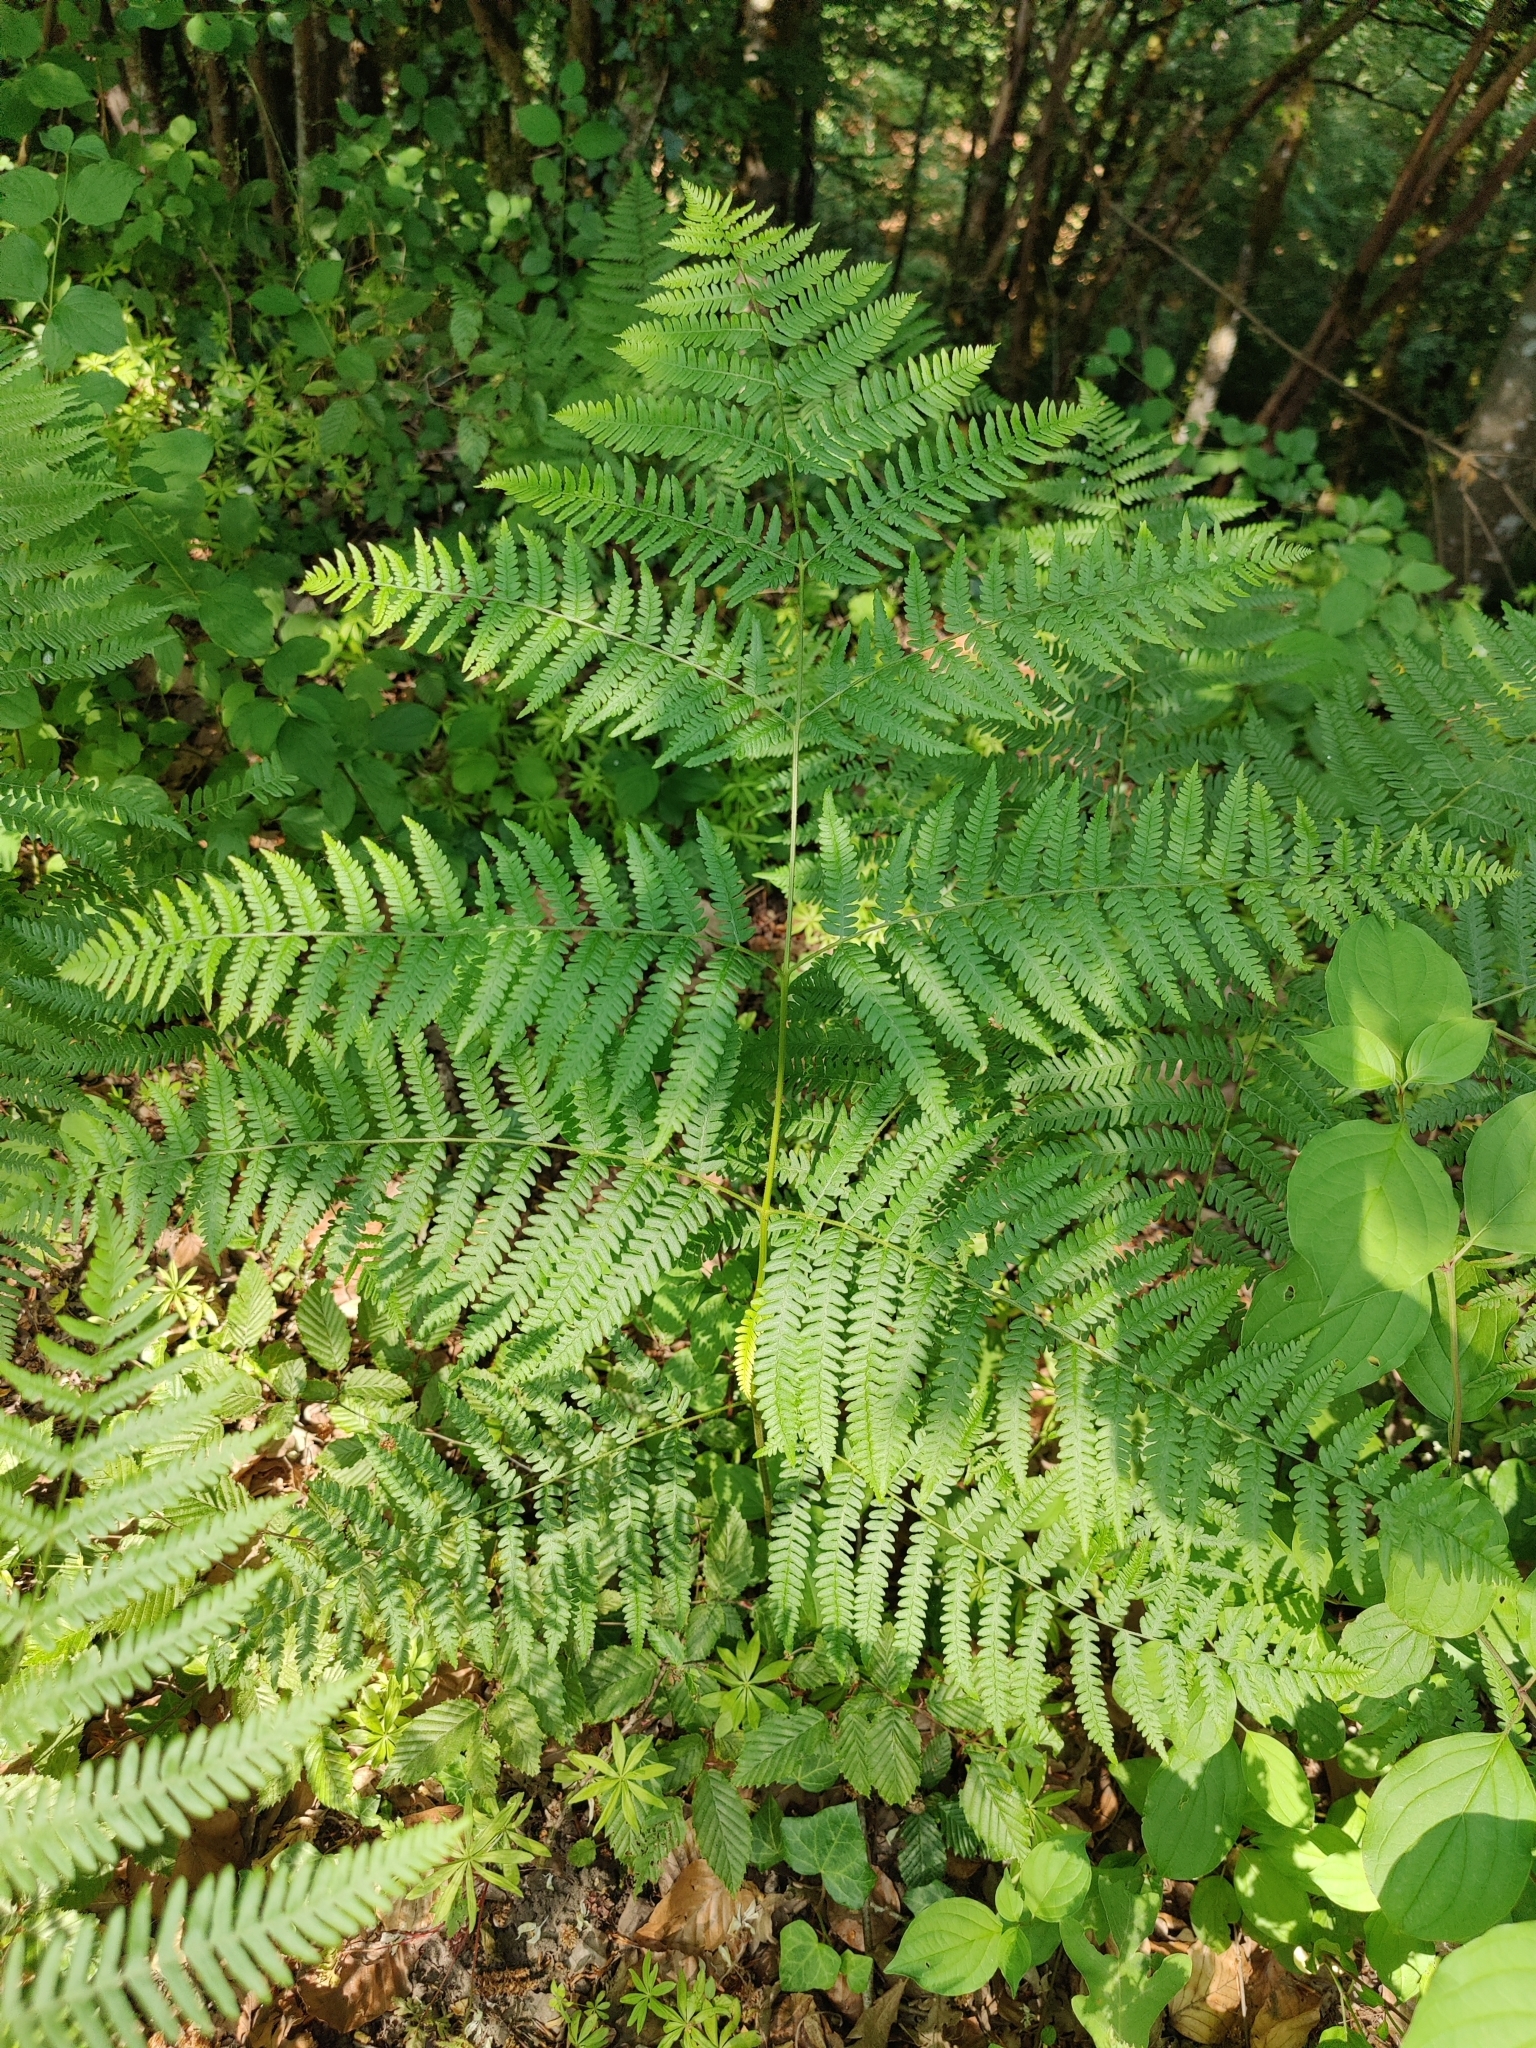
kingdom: Plantae
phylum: Tracheophyta
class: Polypodiopsida
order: Polypodiales
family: Dennstaedtiaceae
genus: Pteridium
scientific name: Pteridium aquilinum
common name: Bracken
